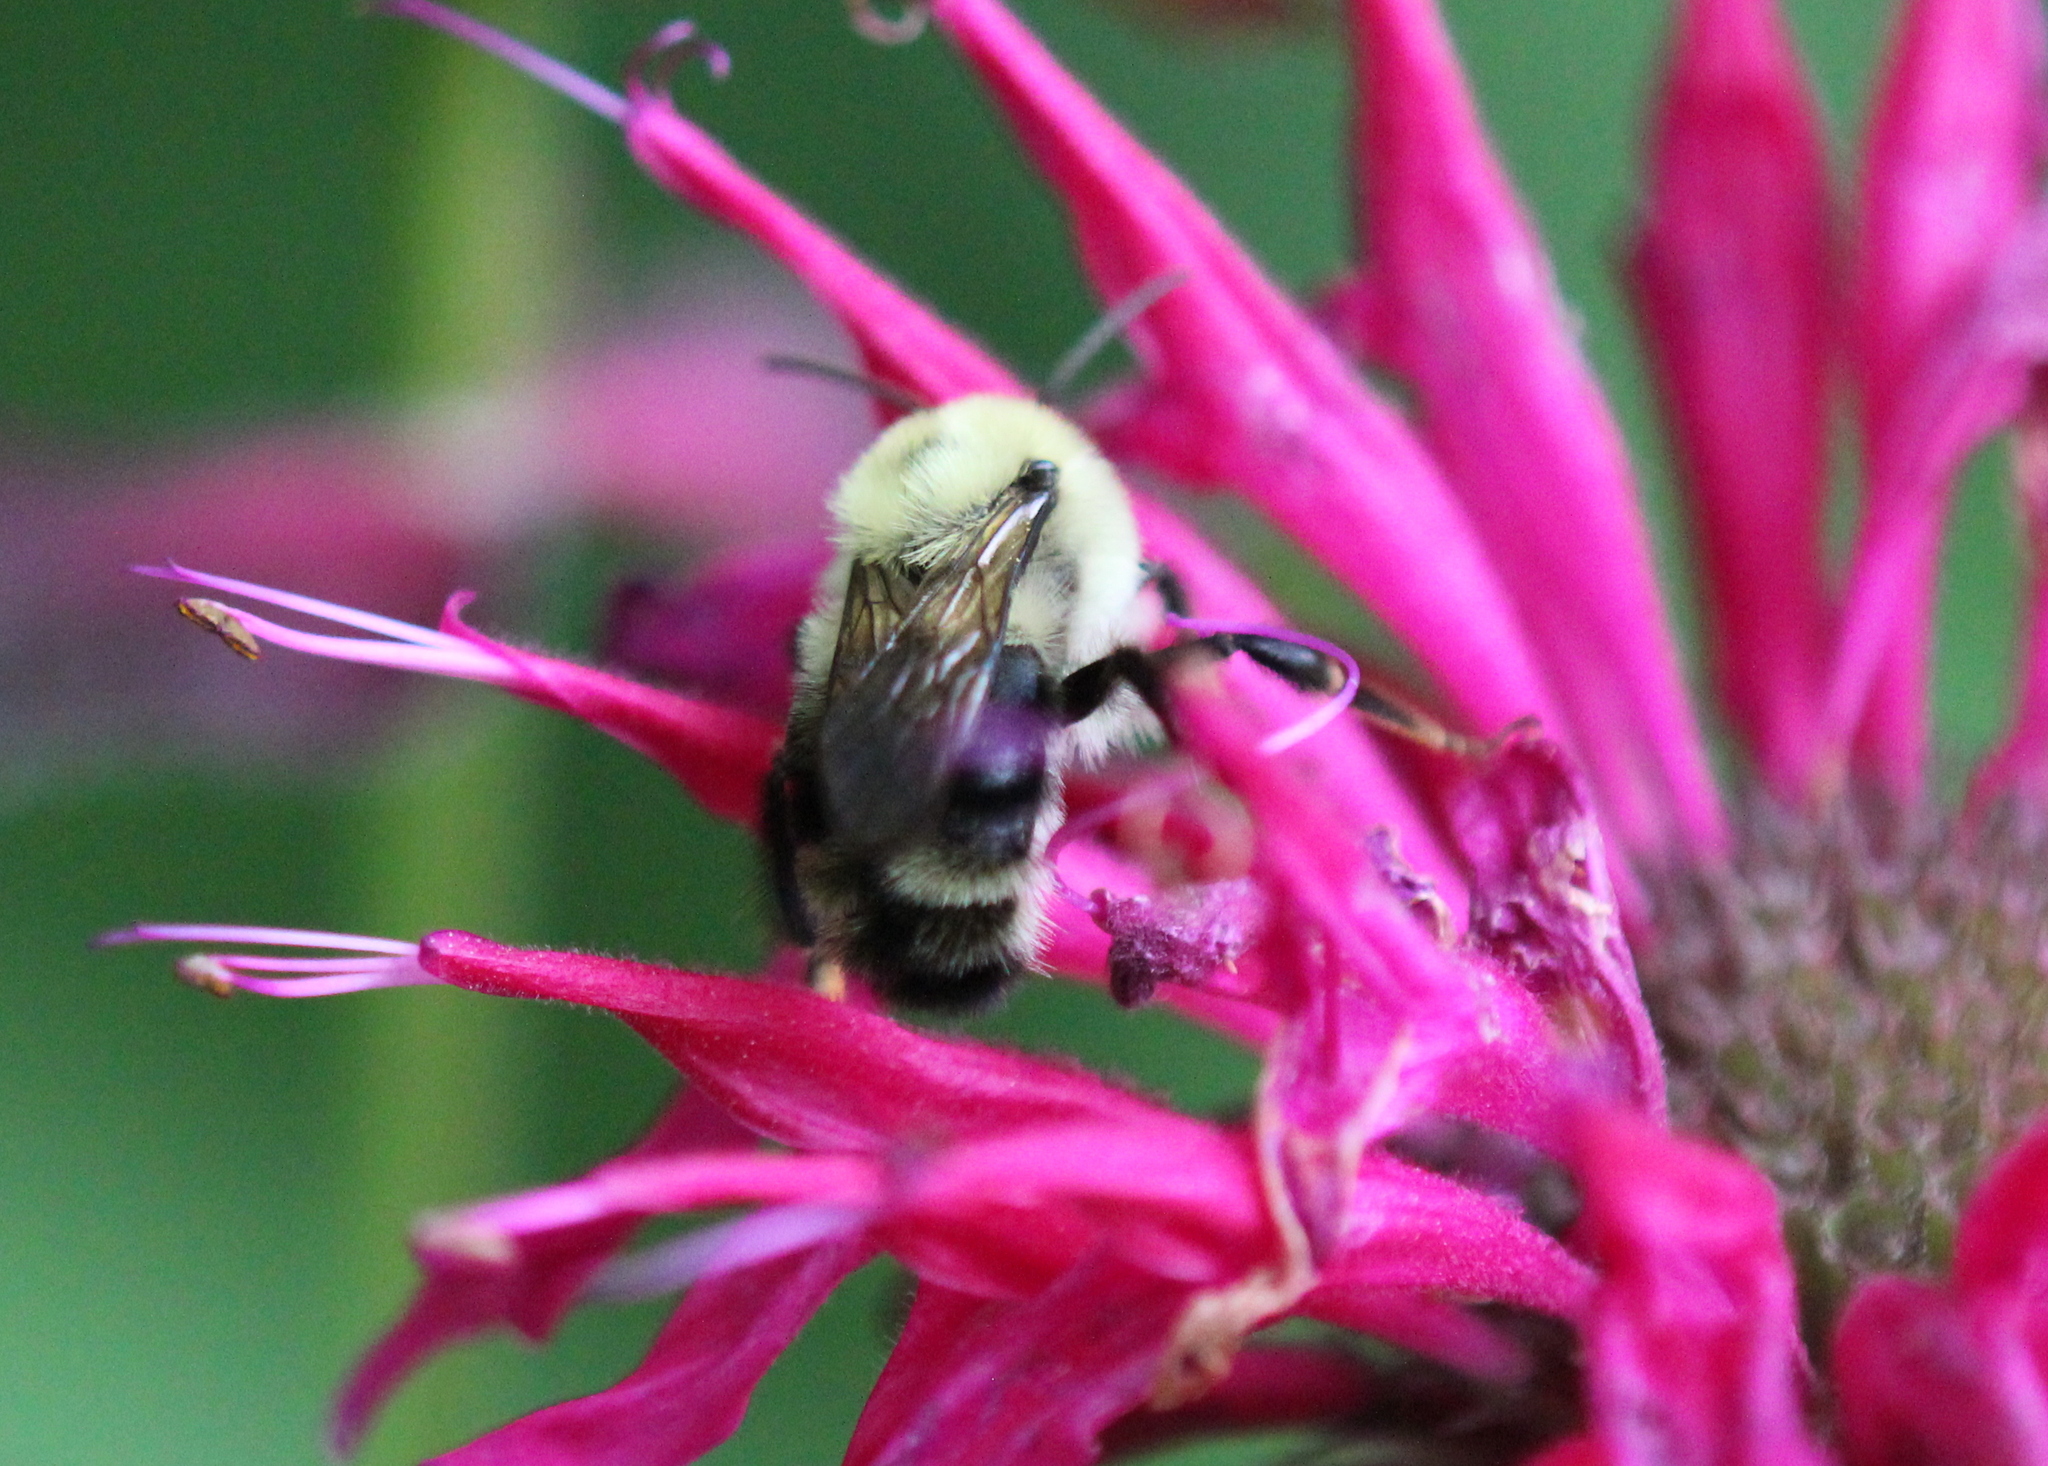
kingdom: Animalia
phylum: Arthropoda
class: Insecta
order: Hymenoptera
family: Apidae
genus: Bombus
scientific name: Bombus bimaculatus
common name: Two-spotted bumble bee
